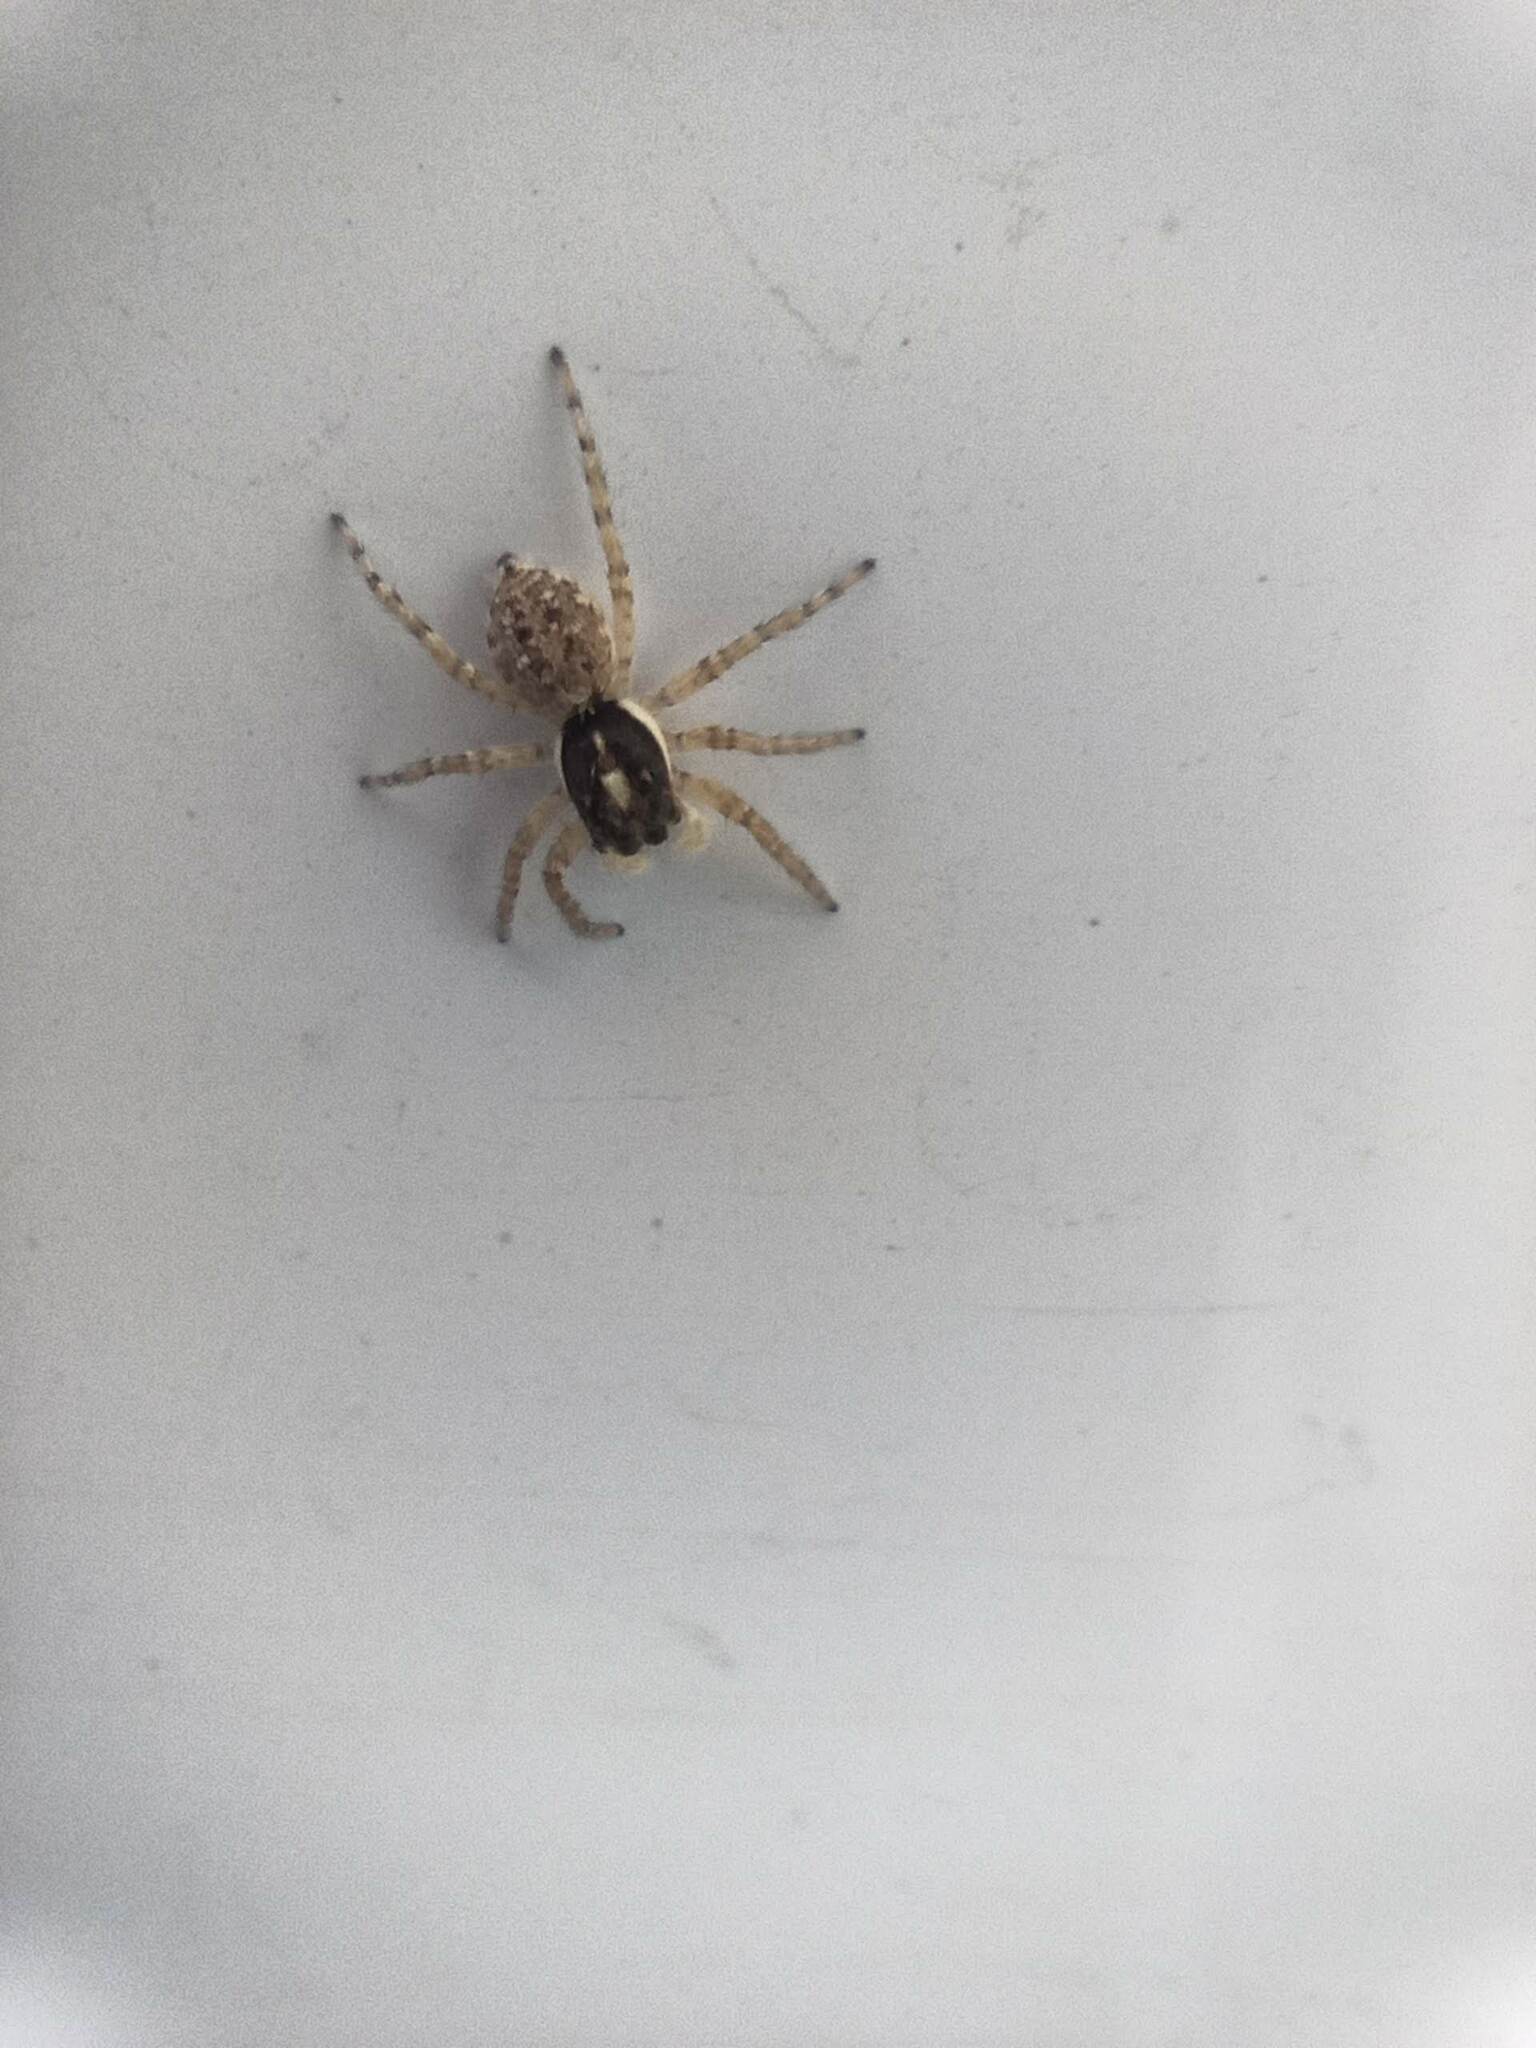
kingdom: Animalia
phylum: Arthropoda
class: Arachnida
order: Araneae
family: Salticidae
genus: Menemerus
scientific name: Menemerus semilimbatus
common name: Jumping spider
